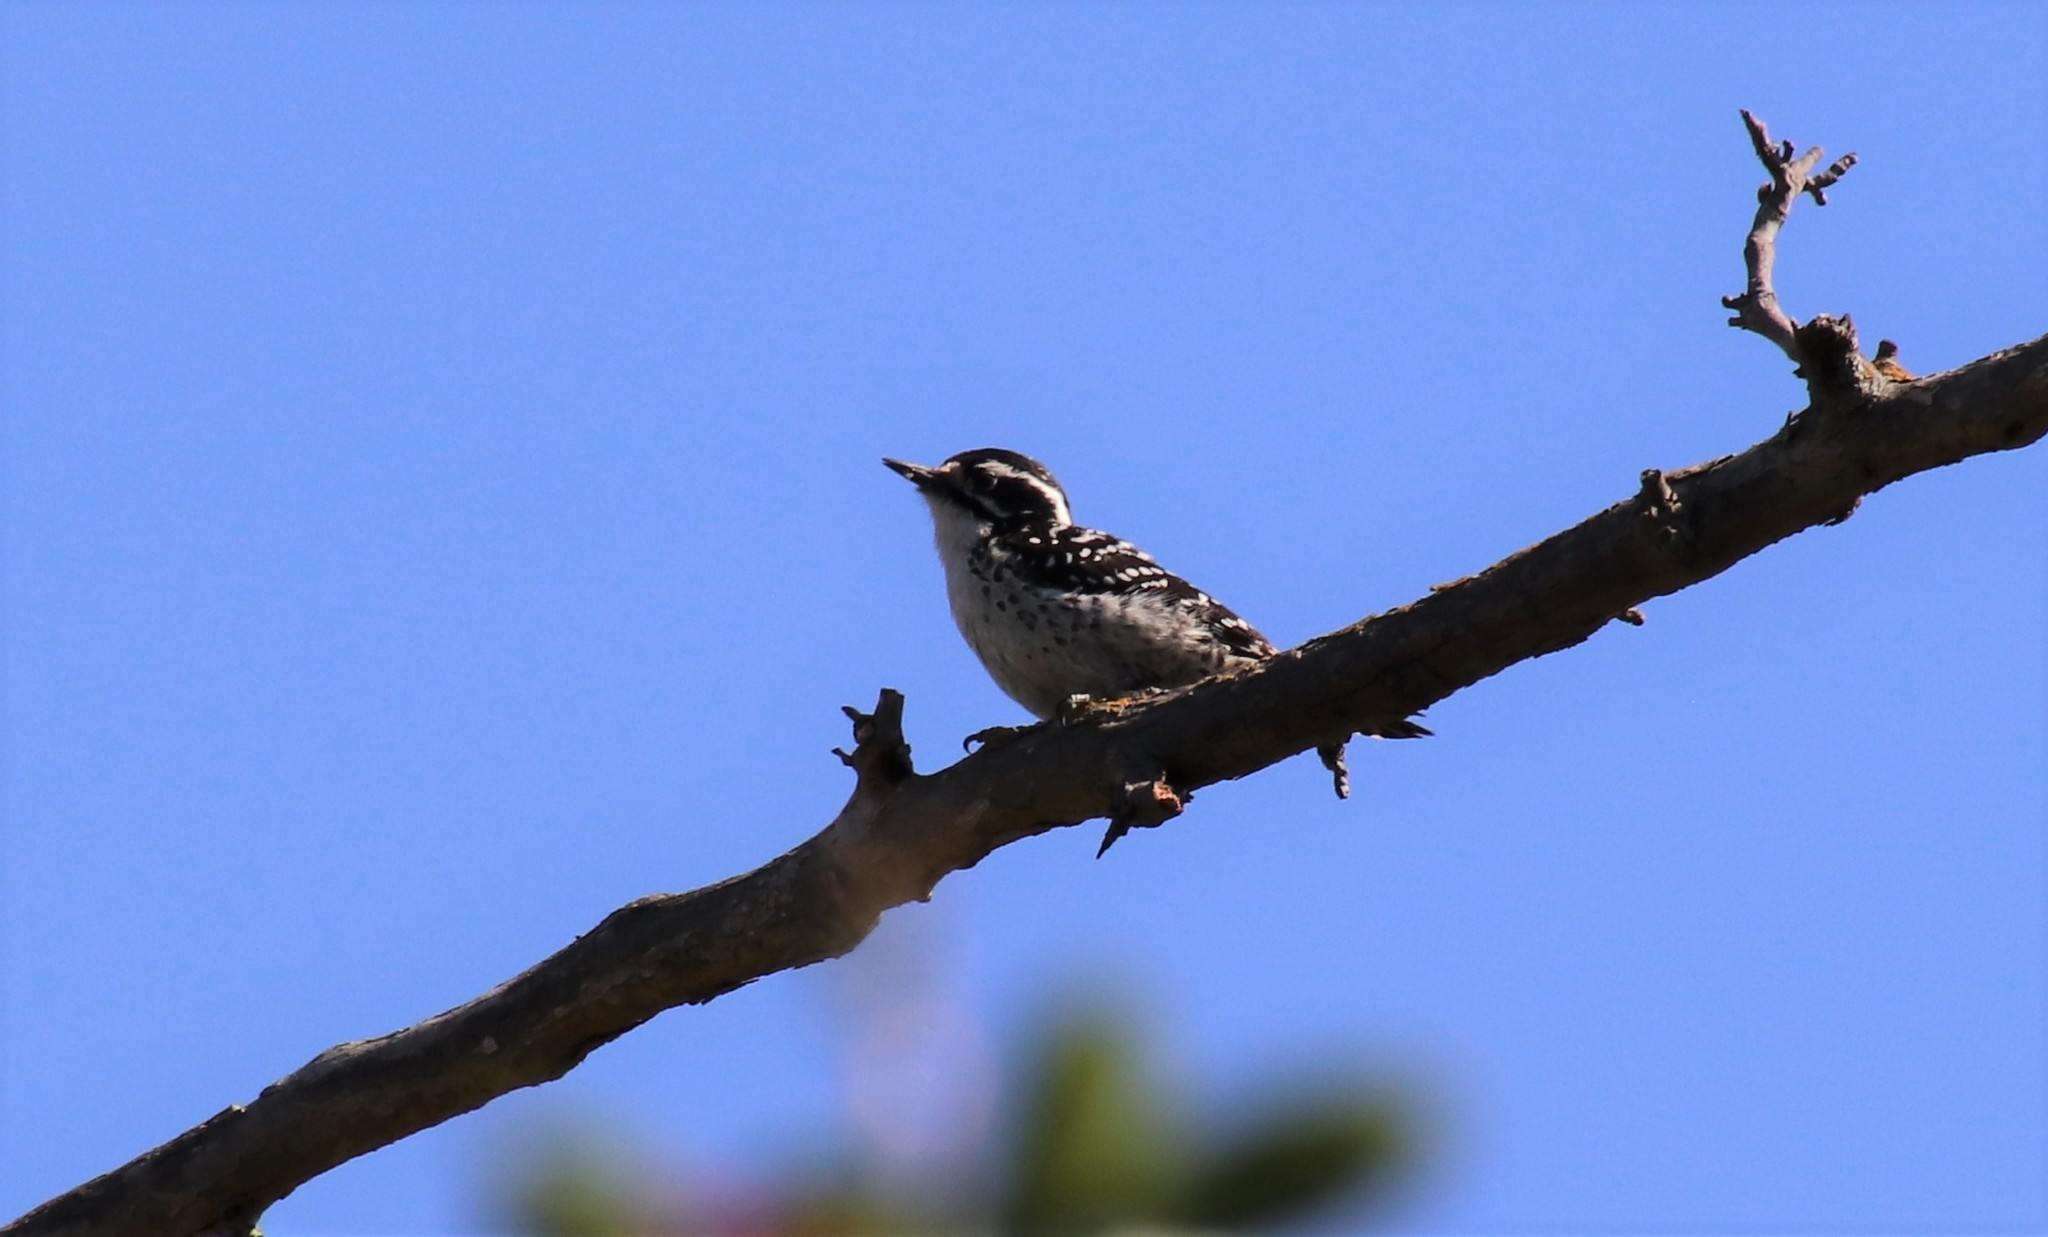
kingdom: Animalia
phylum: Chordata
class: Aves
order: Piciformes
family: Picidae
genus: Dryobates
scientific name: Dryobates nuttallii
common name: Nuttall's woodpecker
